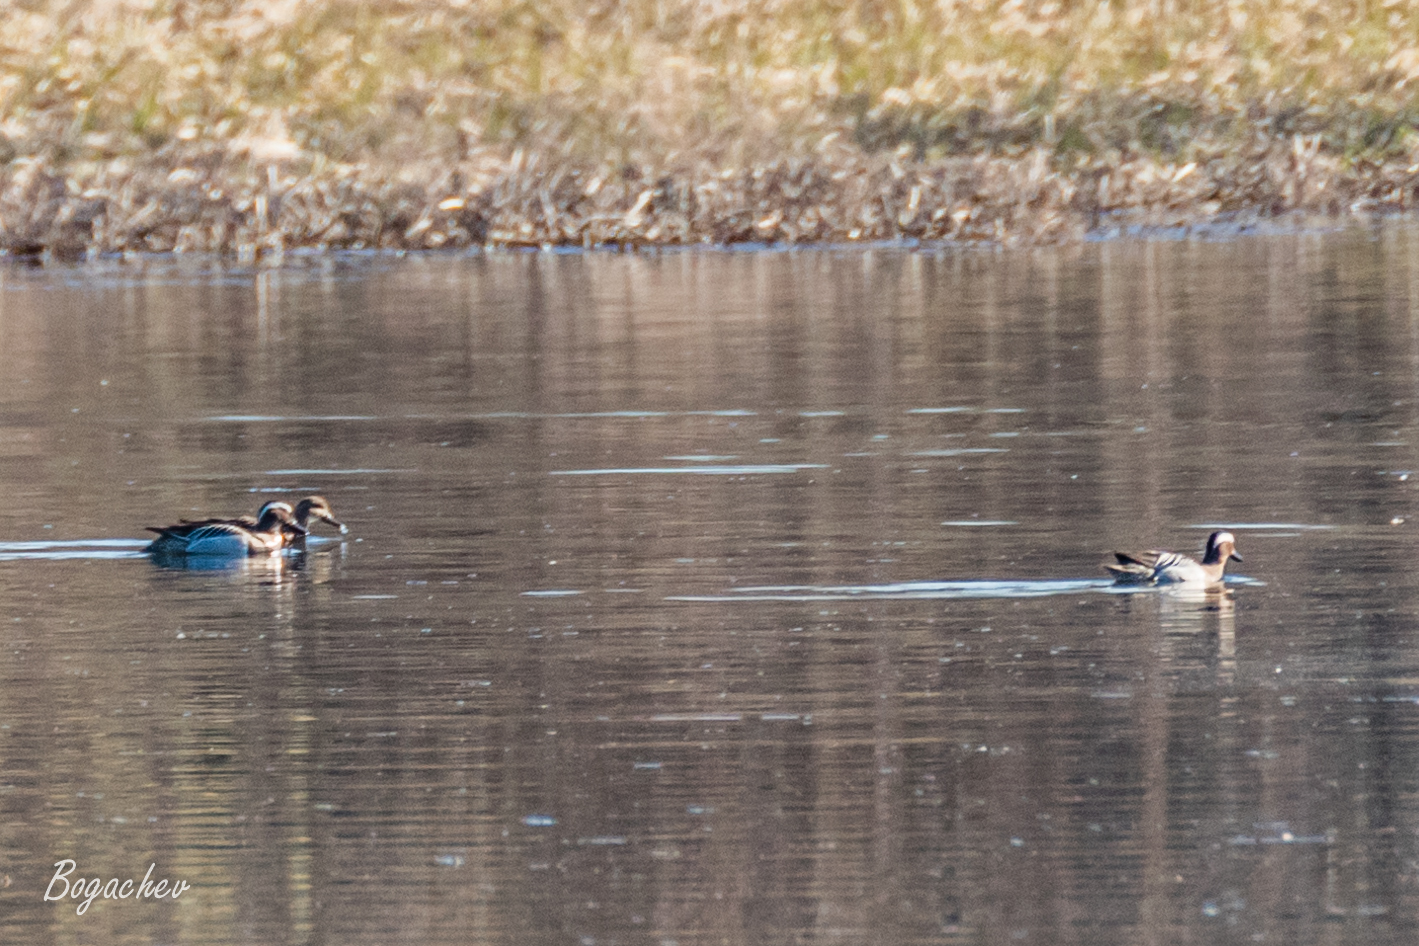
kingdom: Animalia
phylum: Chordata
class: Aves
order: Anseriformes
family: Anatidae
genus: Spatula
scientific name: Spatula querquedula
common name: Garganey
